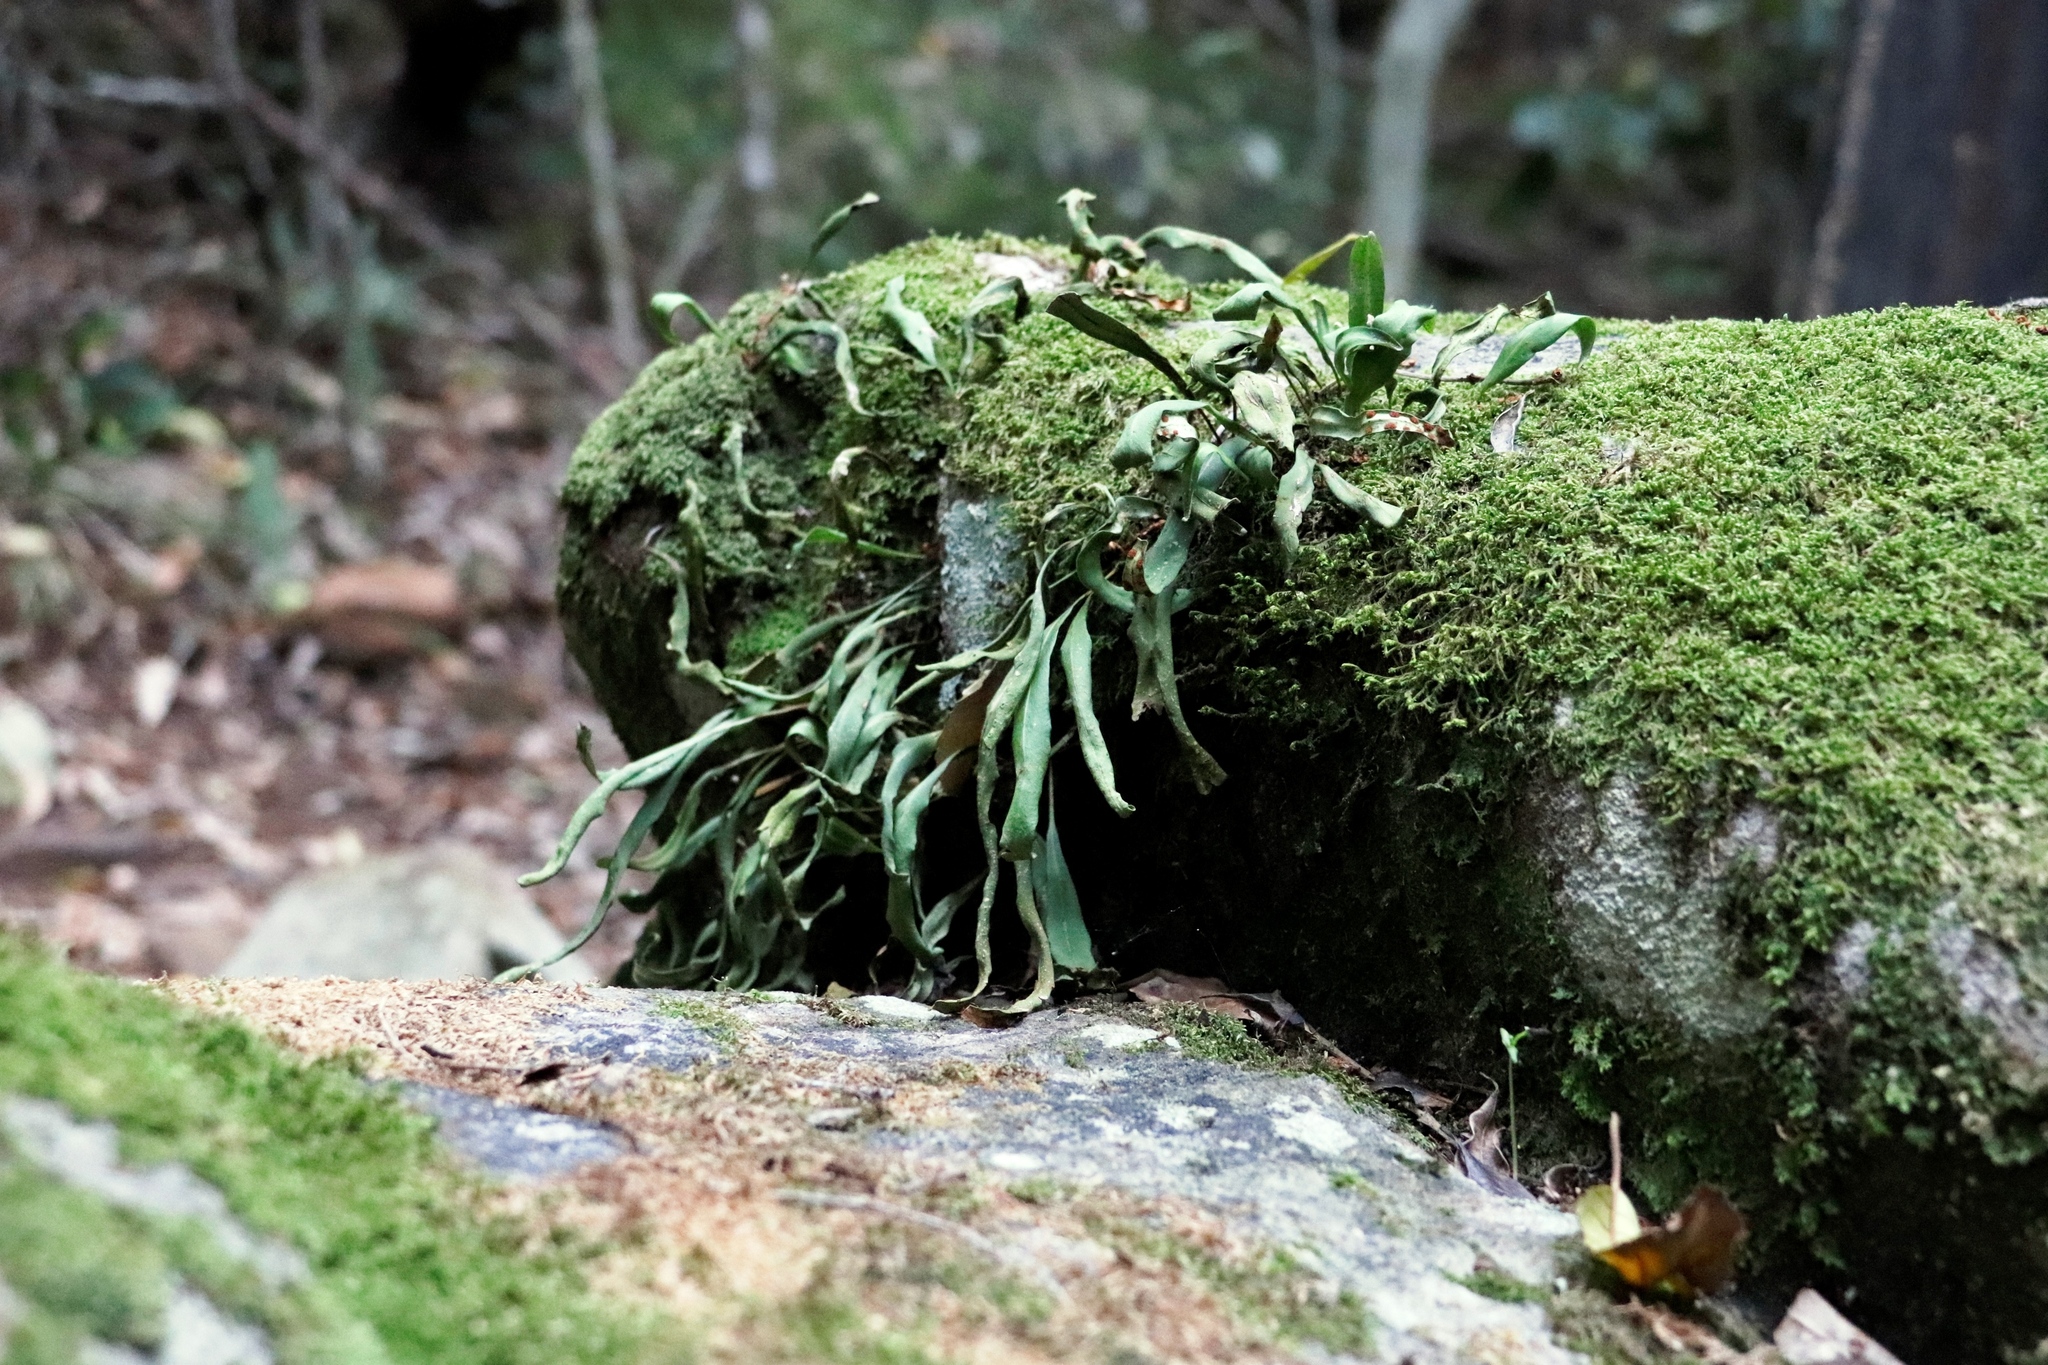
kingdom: Plantae
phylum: Tracheophyta
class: Polypodiopsida
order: Polypodiales
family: Polypodiaceae
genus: Pleopeltis
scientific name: Pleopeltis macrocarpa
